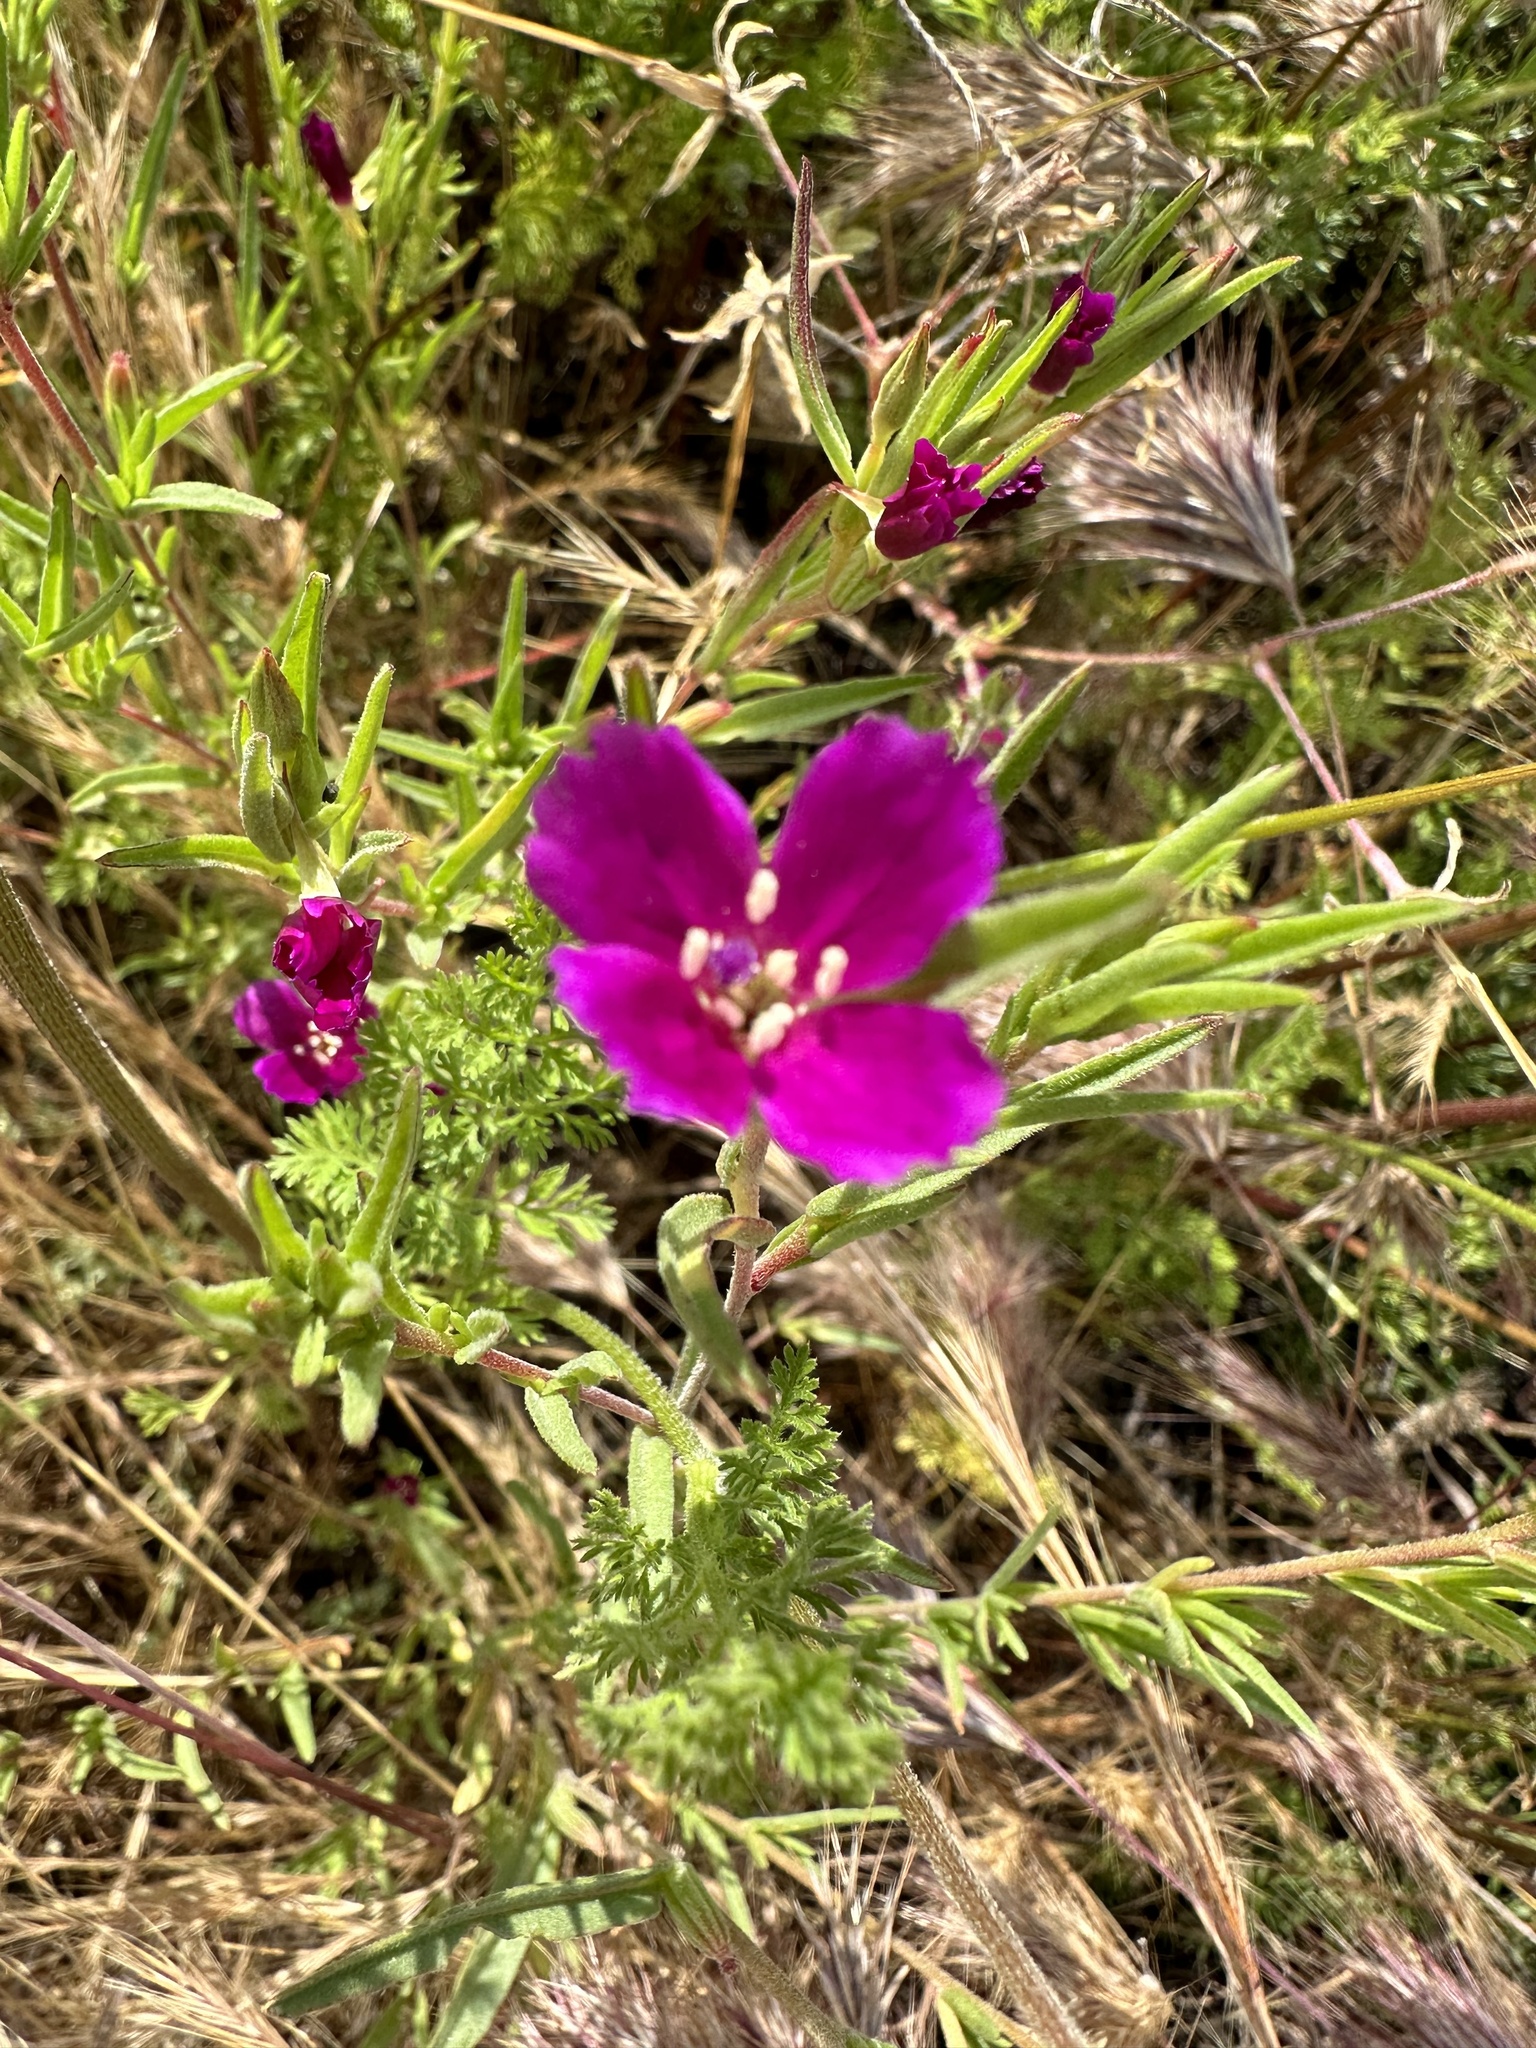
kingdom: Plantae
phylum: Tracheophyta
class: Magnoliopsida
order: Myrtales
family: Onagraceae
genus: Clarkia
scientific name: Clarkia purpurea
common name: Purple clarkia
